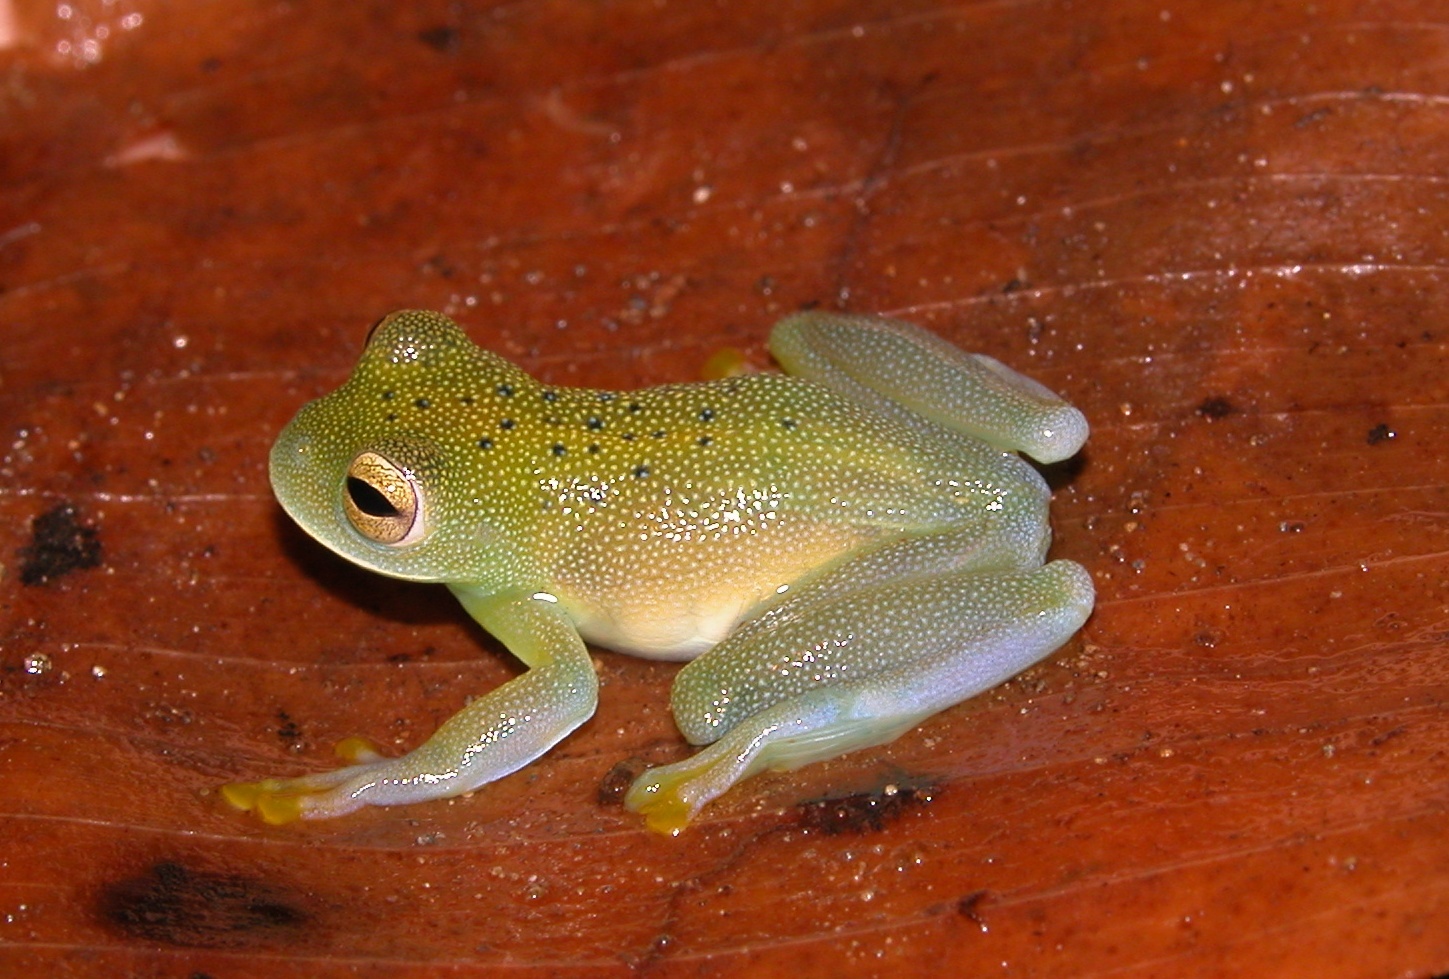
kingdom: Animalia
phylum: Chordata
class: Amphibia
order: Anura
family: Centrolenidae
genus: Cochranella
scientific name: Cochranella granulosa
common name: Grainy cochran frog
